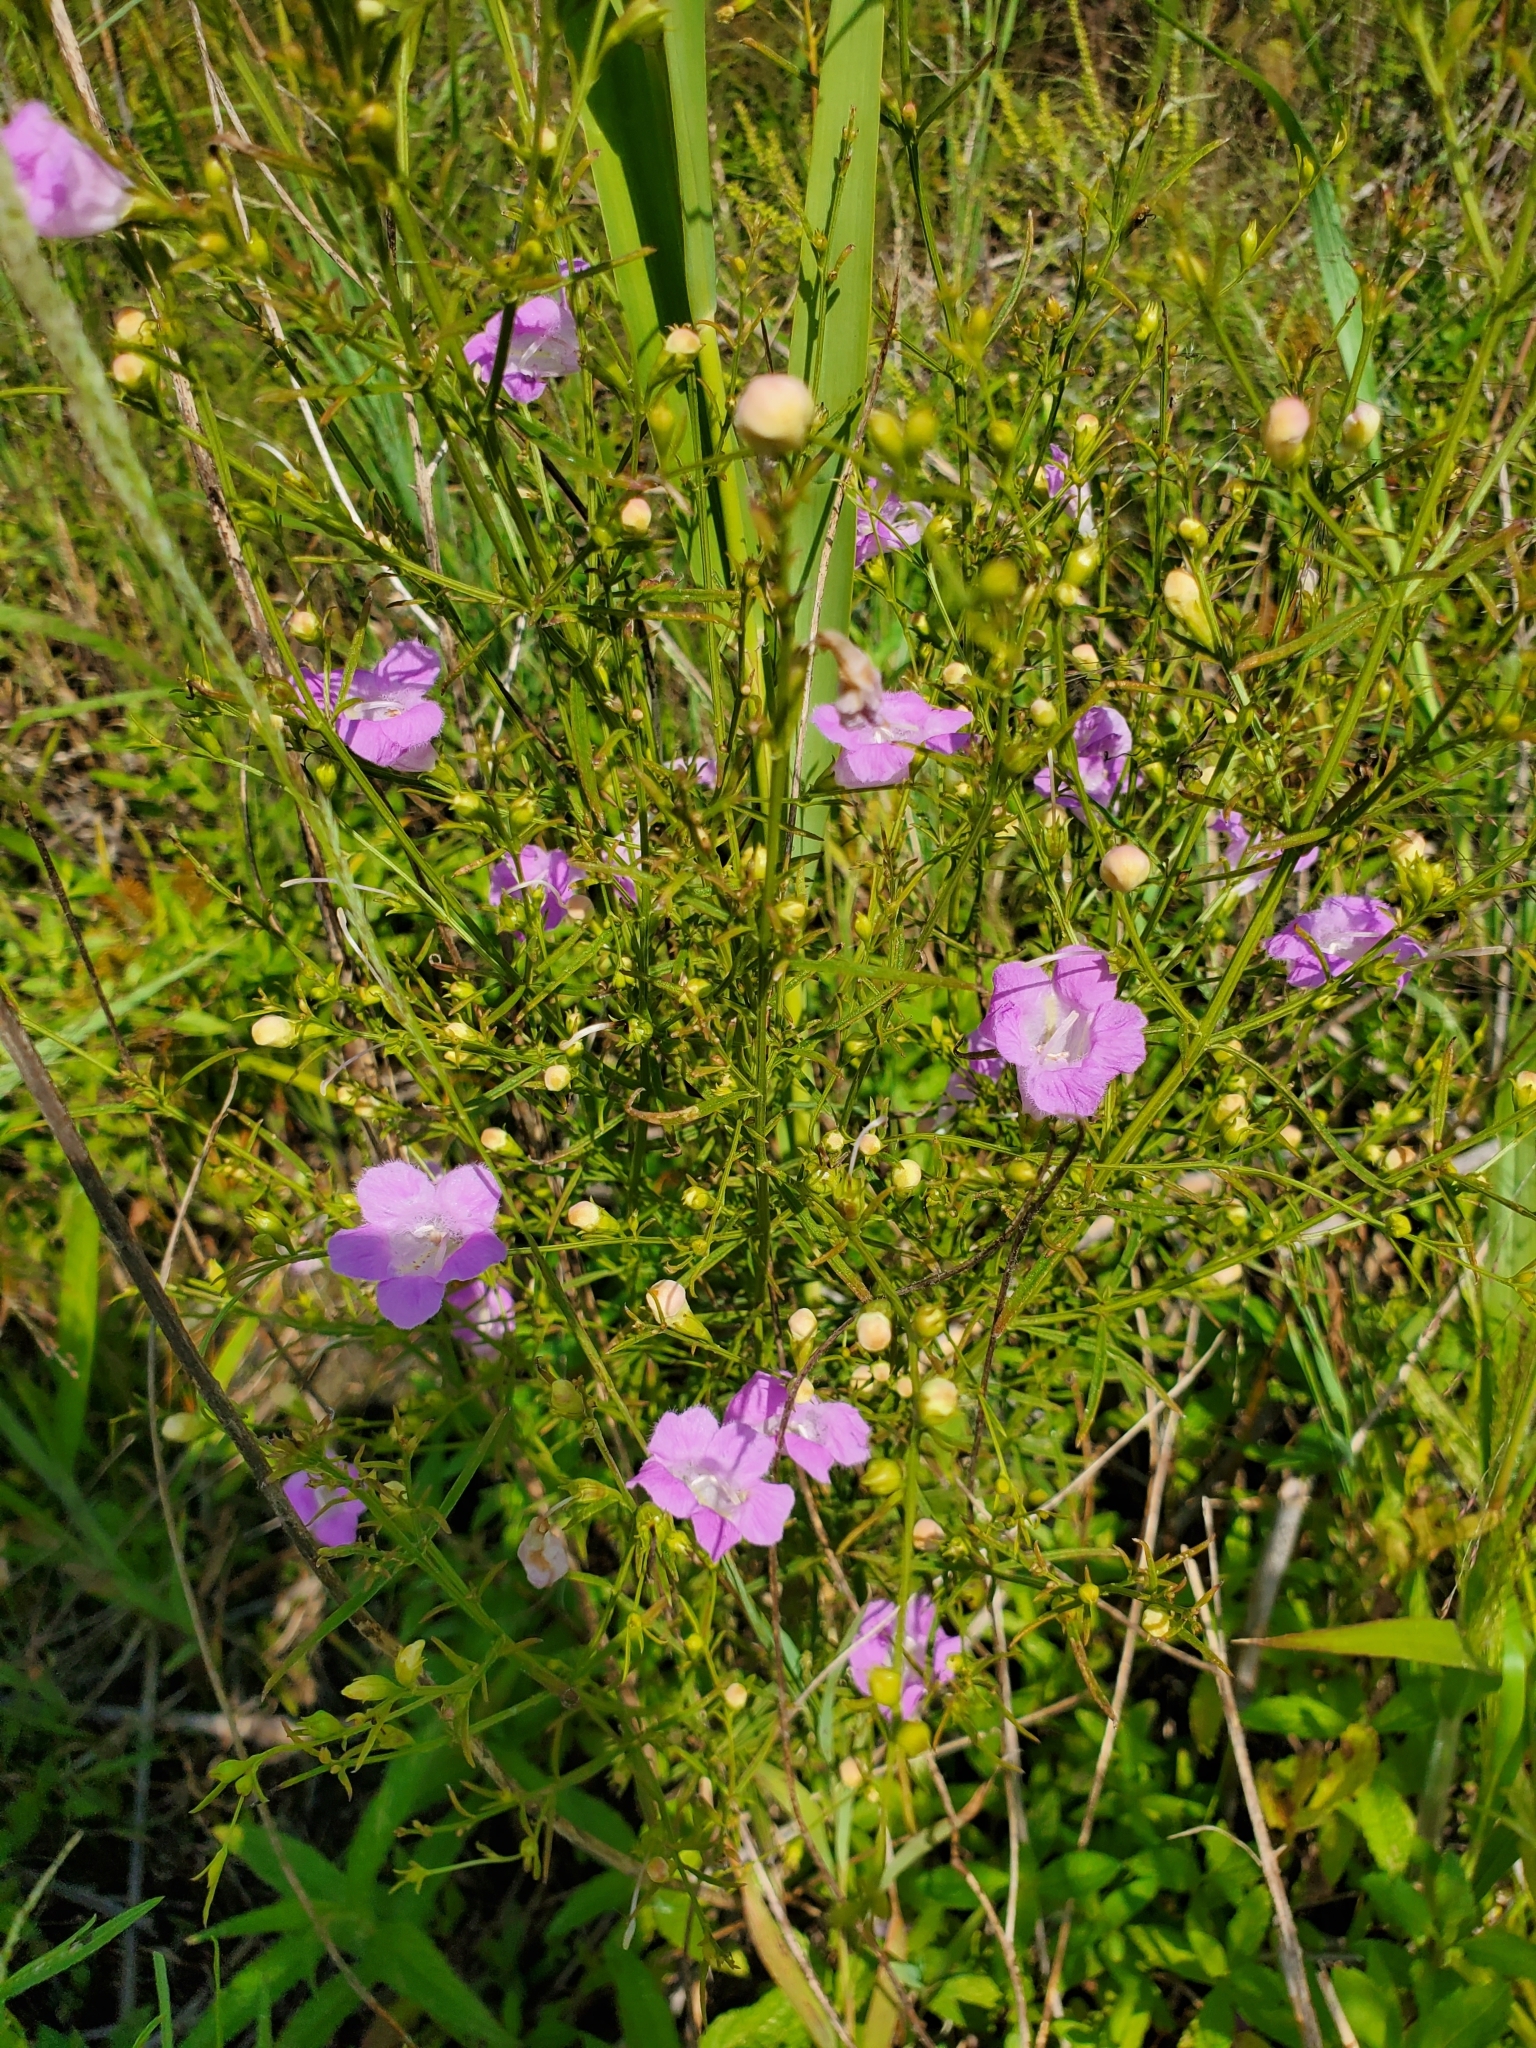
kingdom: Plantae
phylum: Tracheophyta
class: Magnoliopsida
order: Lamiales
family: Orobanchaceae
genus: Agalinis
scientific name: Agalinis purpurea
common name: Purple false foxglove
